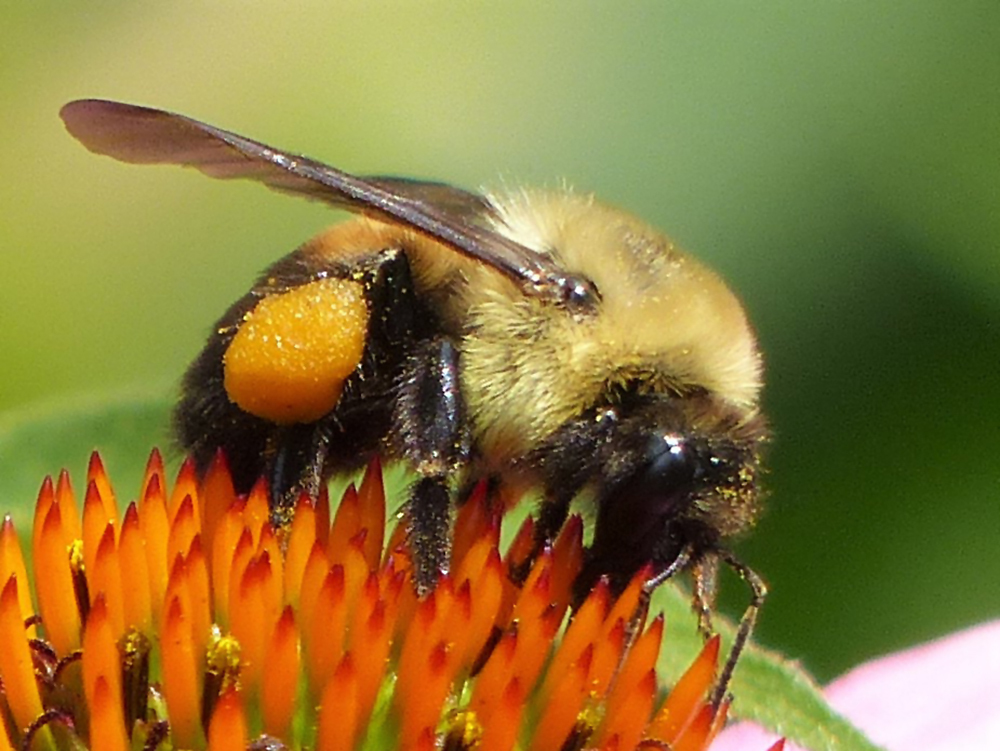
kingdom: Animalia
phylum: Arthropoda
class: Insecta
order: Hymenoptera
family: Apidae
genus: Bombus
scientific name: Bombus griseocollis
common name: Brown-belted bumble bee
